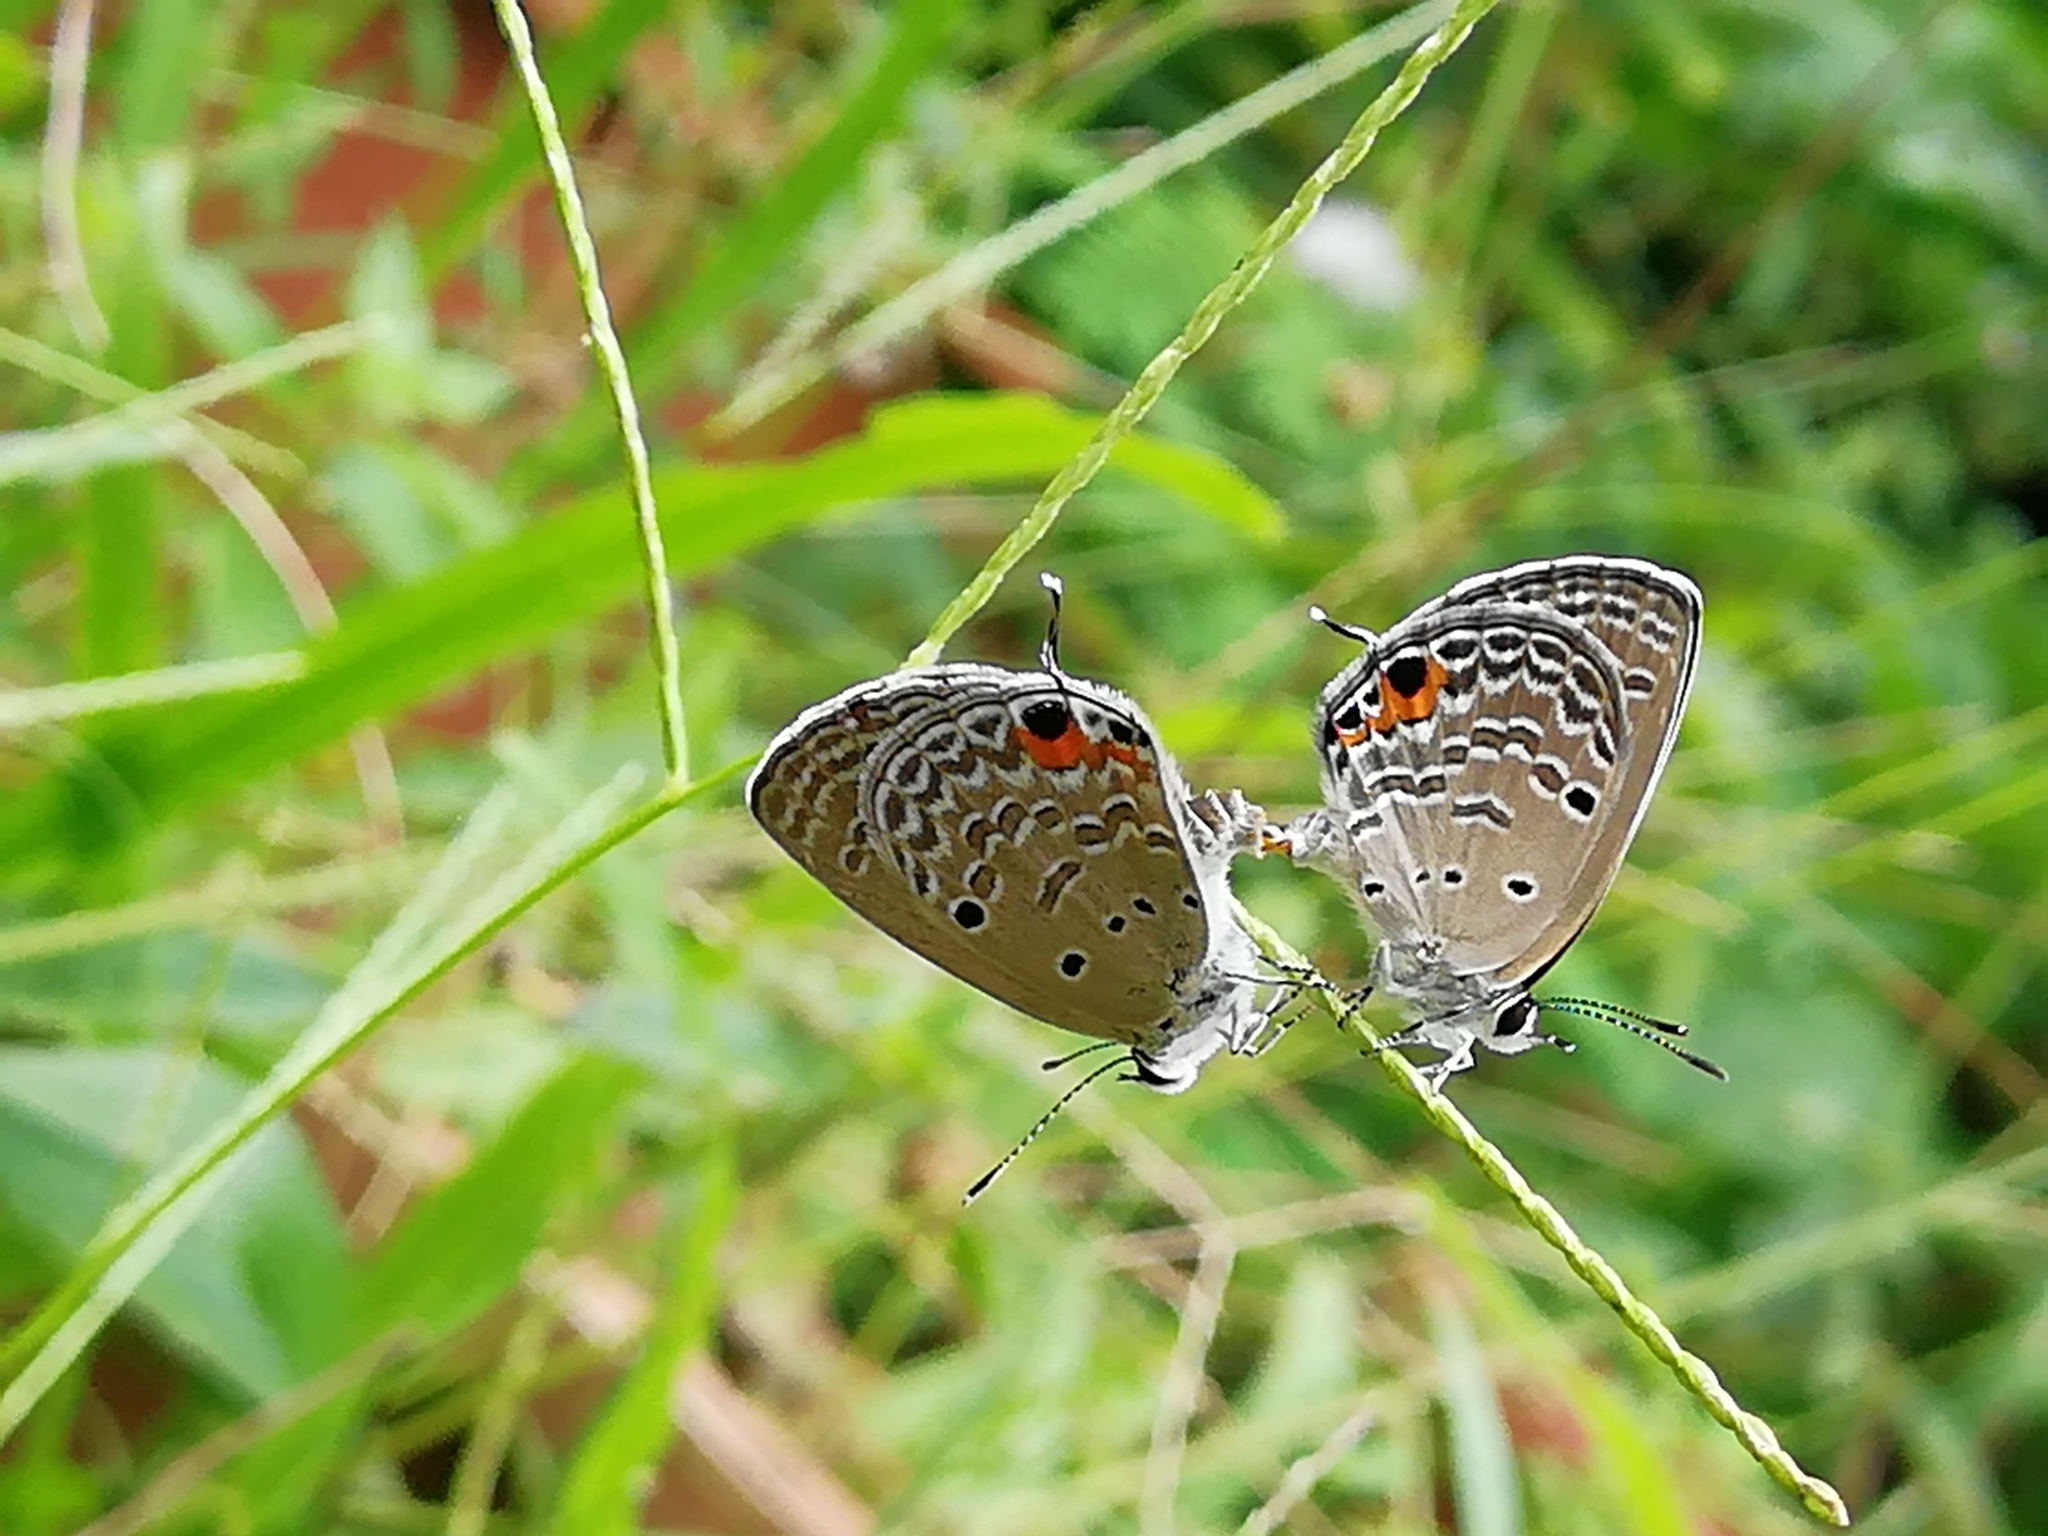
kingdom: Animalia
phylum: Arthropoda
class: Insecta
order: Lepidoptera
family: Lycaenidae
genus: Luthrodes
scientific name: Luthrodes pandava
